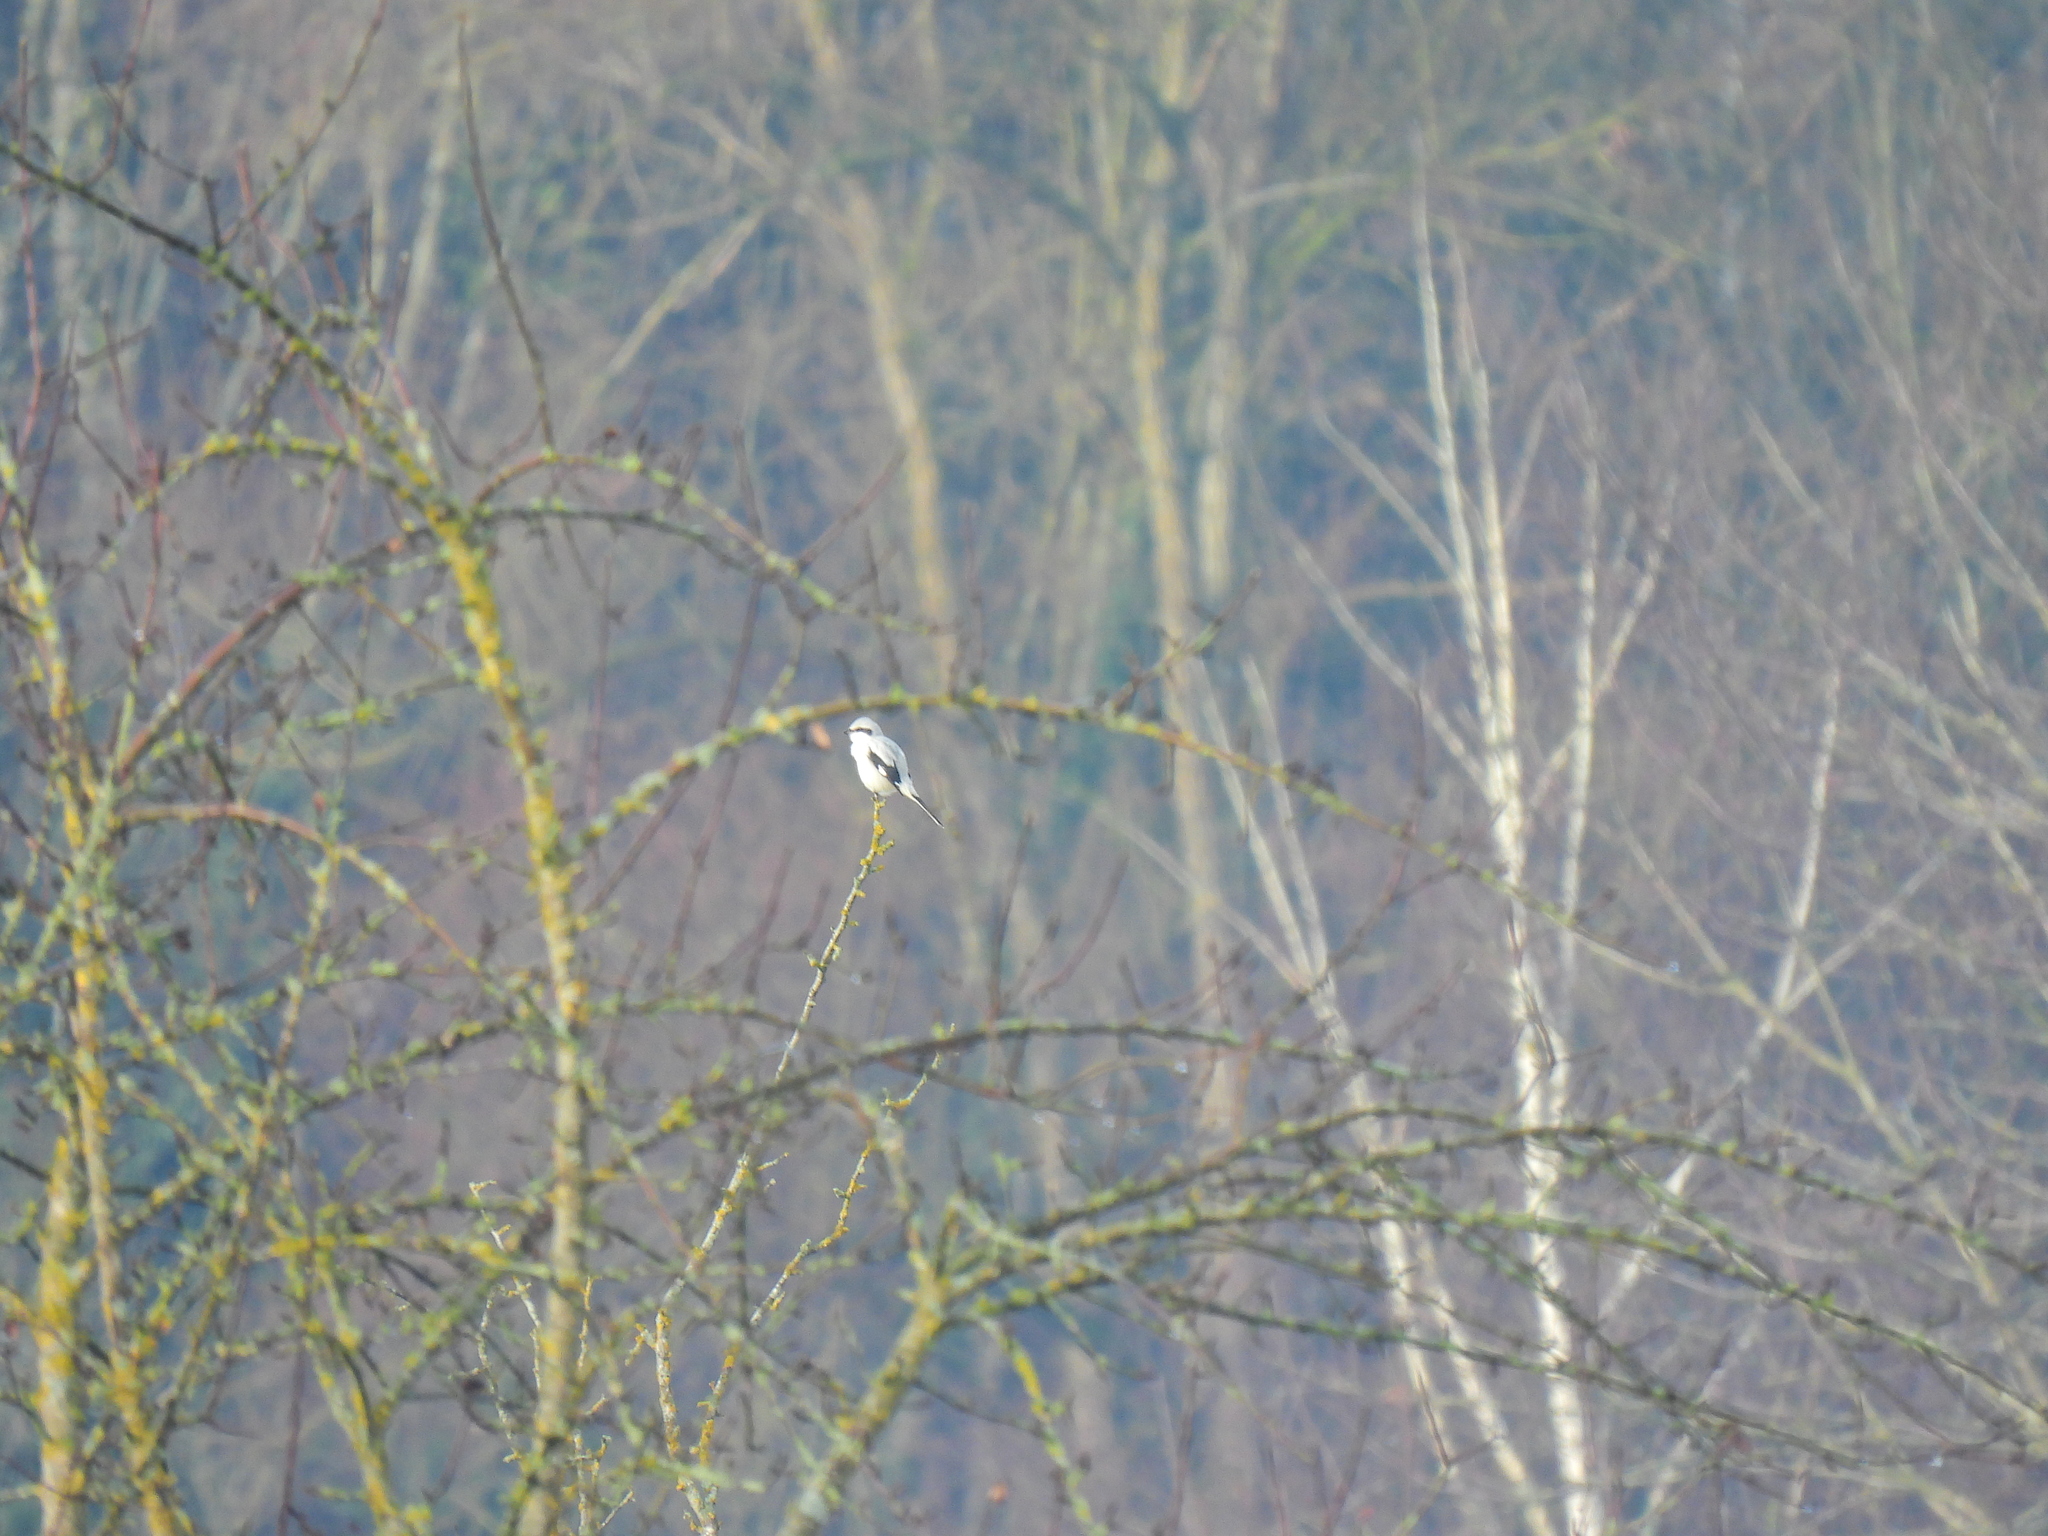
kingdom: Animalia
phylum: Chordata
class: Aves
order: Passeriformes
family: Laniidae
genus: Lanius
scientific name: Lanius excubitor
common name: Great grey shrike
